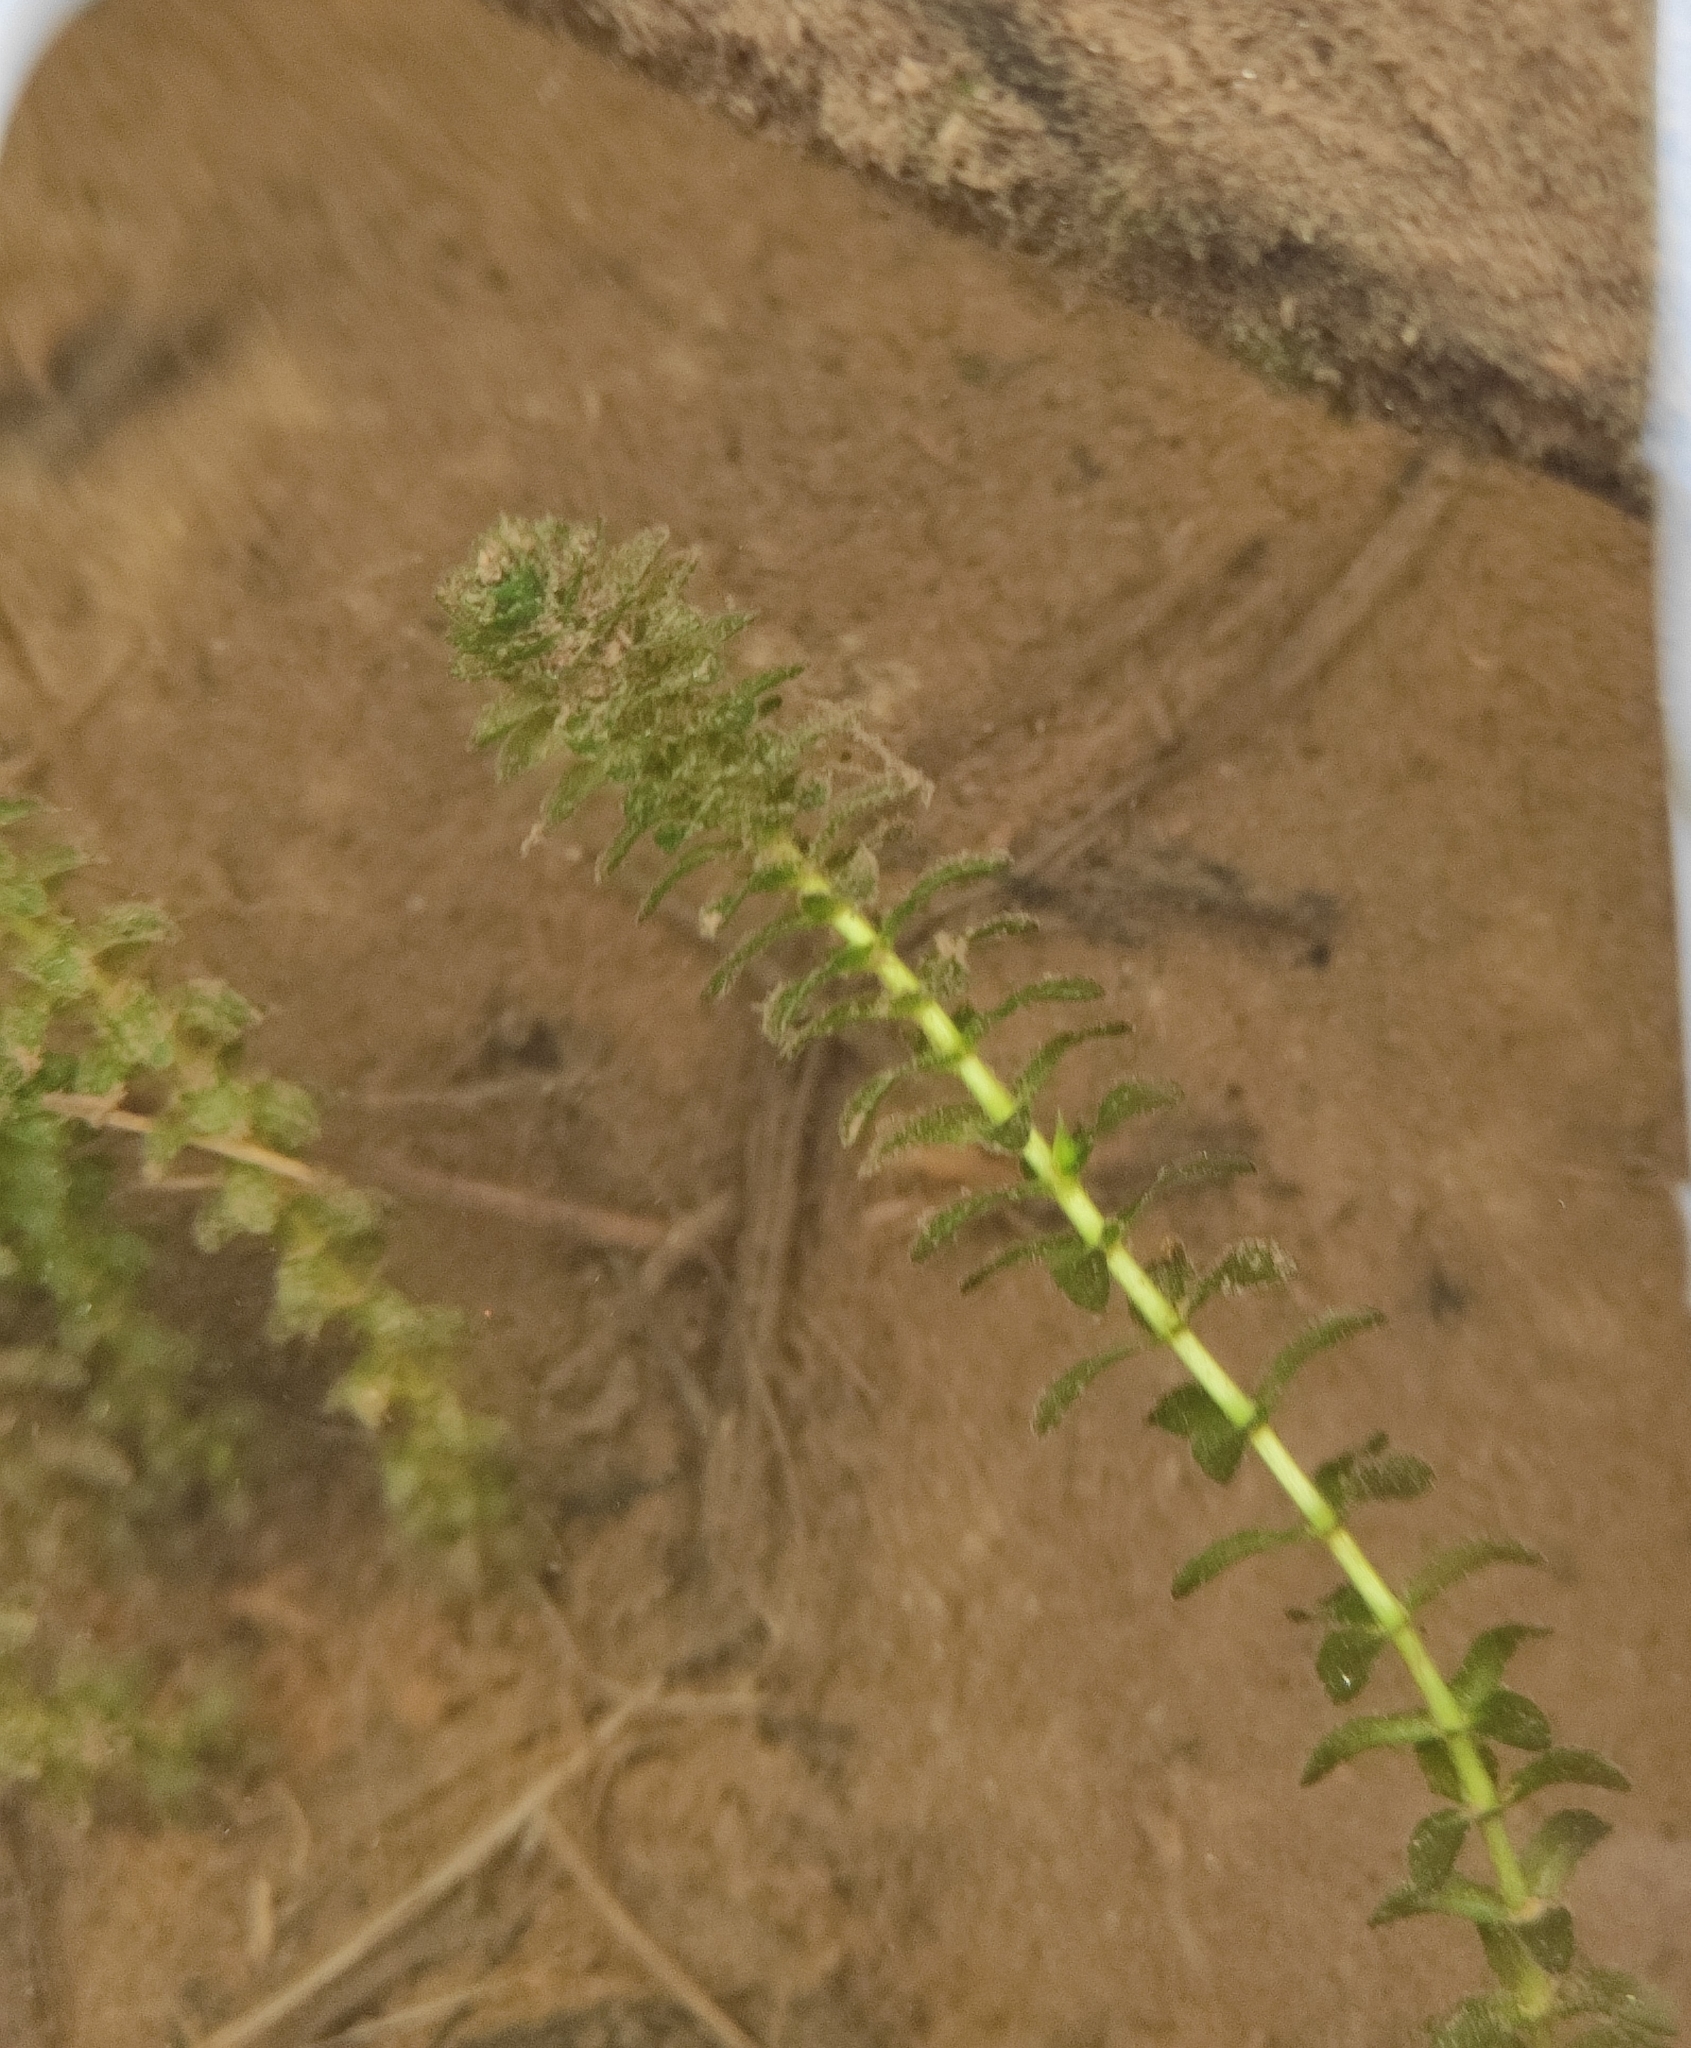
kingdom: Plantae
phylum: Tracheophyta
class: Liliopsida
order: Alismatales
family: Hydrocharitaceae
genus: Elodea
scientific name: Elodea canadensis
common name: Canadian waterweed
